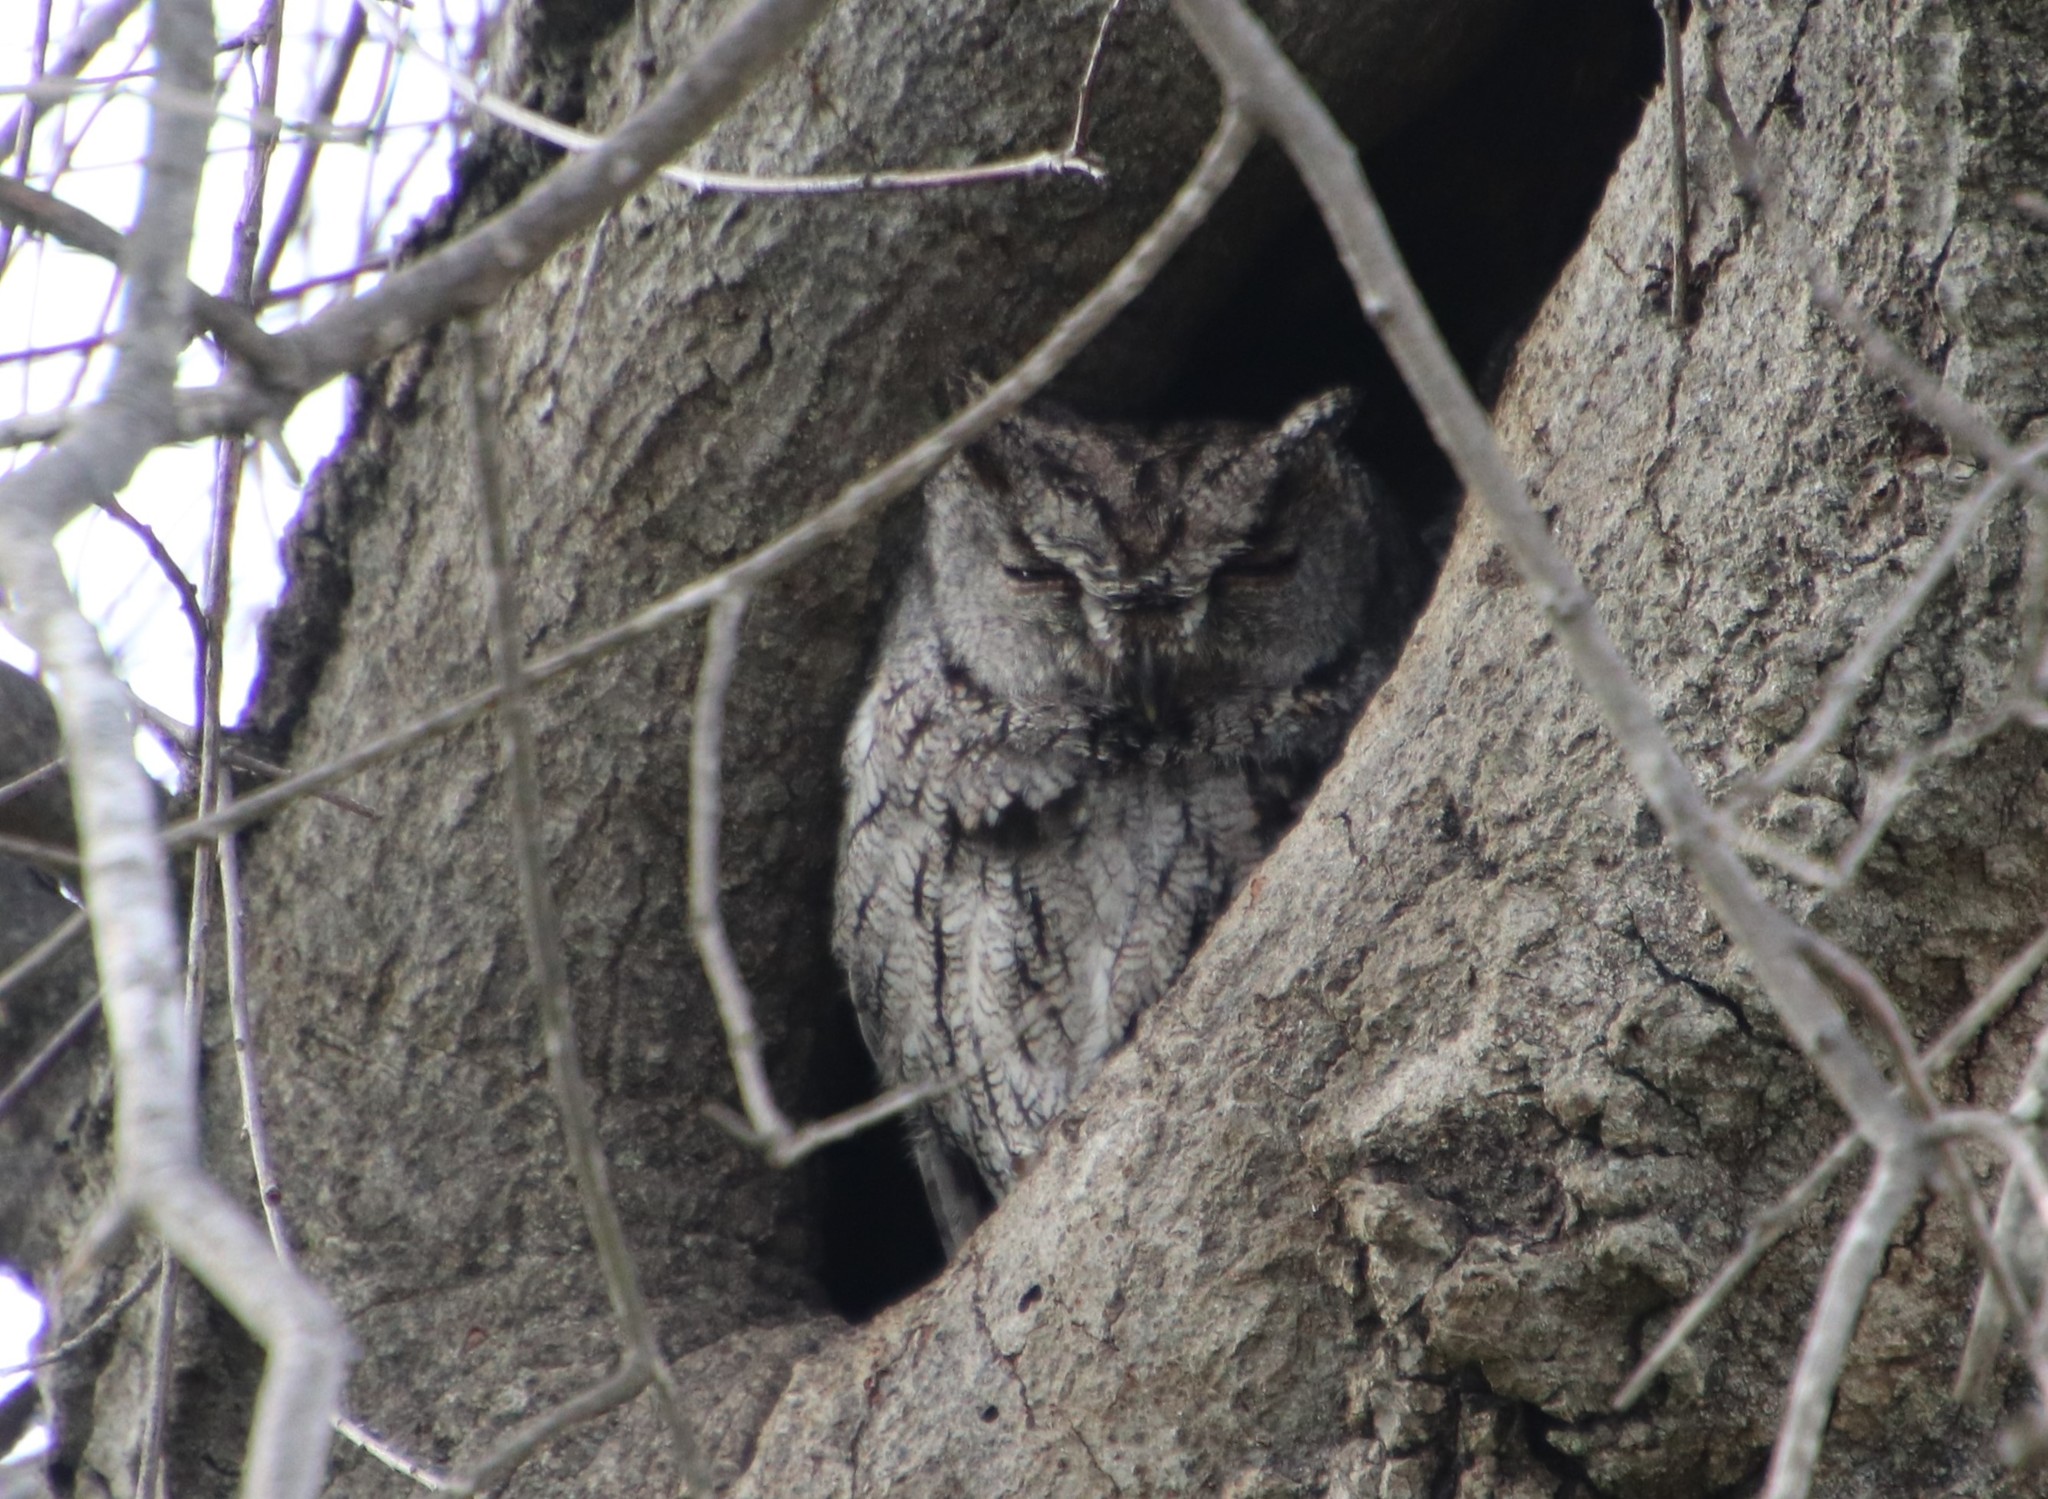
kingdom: Animalia
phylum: Chordata
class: Aves
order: Strigiformes
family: Strigidae
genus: Megascops
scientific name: Megascops kennicottii
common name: Western screech-owl
